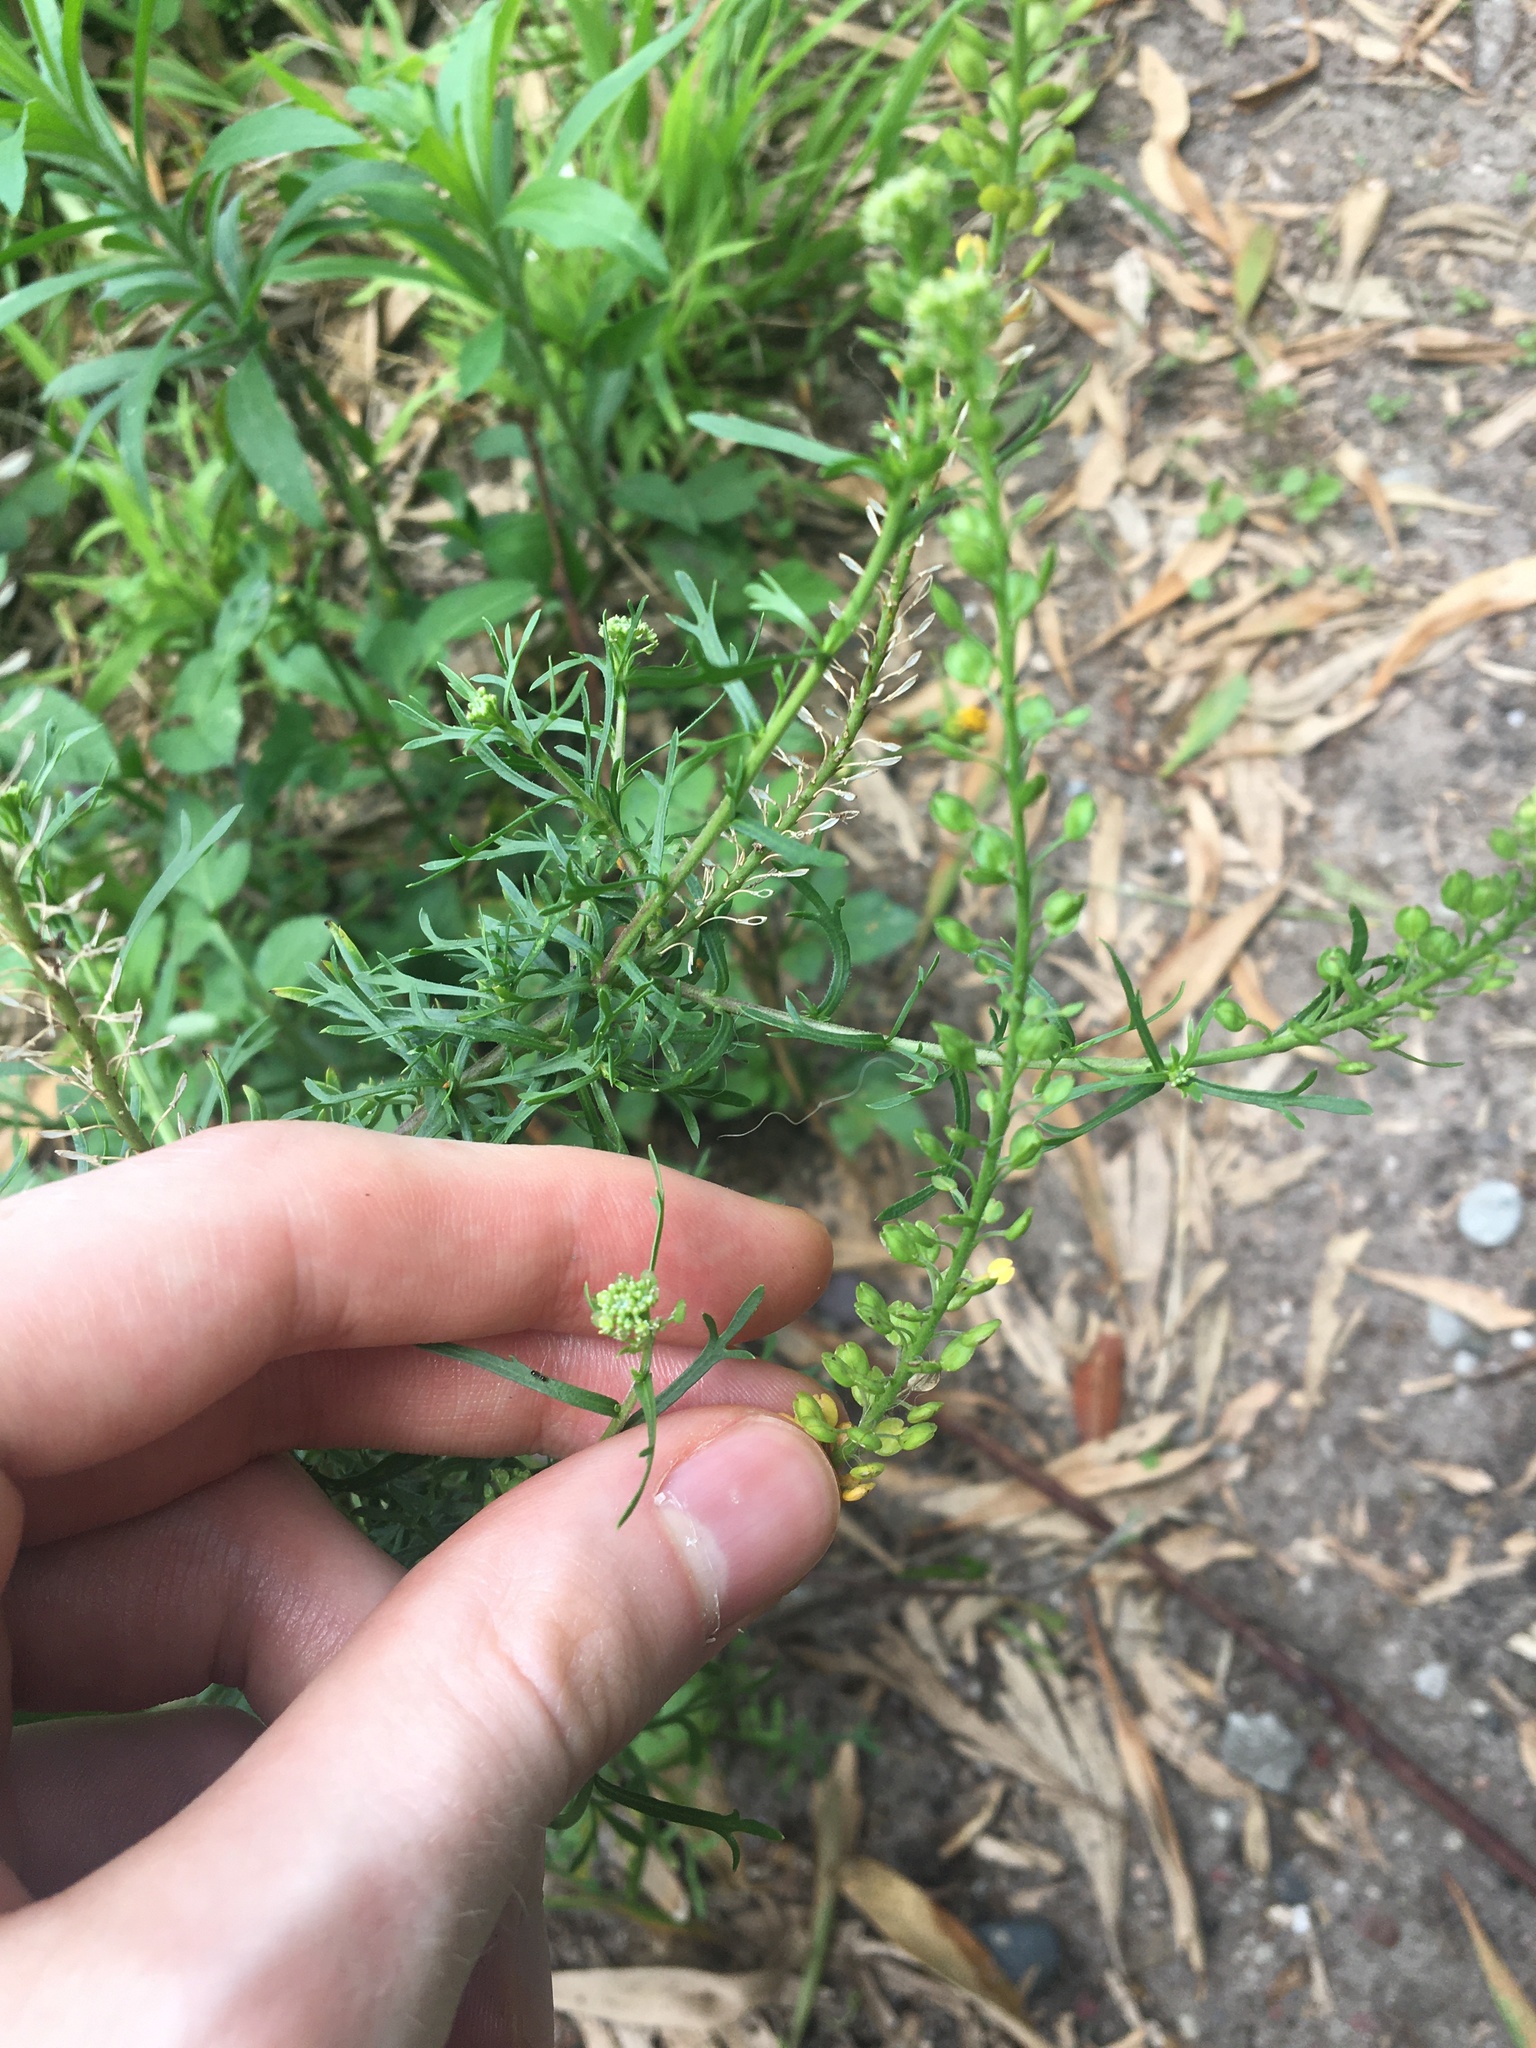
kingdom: Plantae
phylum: Tracheophyta
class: Magnoliopsida
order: Brassicales
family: Brassicaceae
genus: Lepidium
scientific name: Lepidium bonariense
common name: Argentine pepperwort
